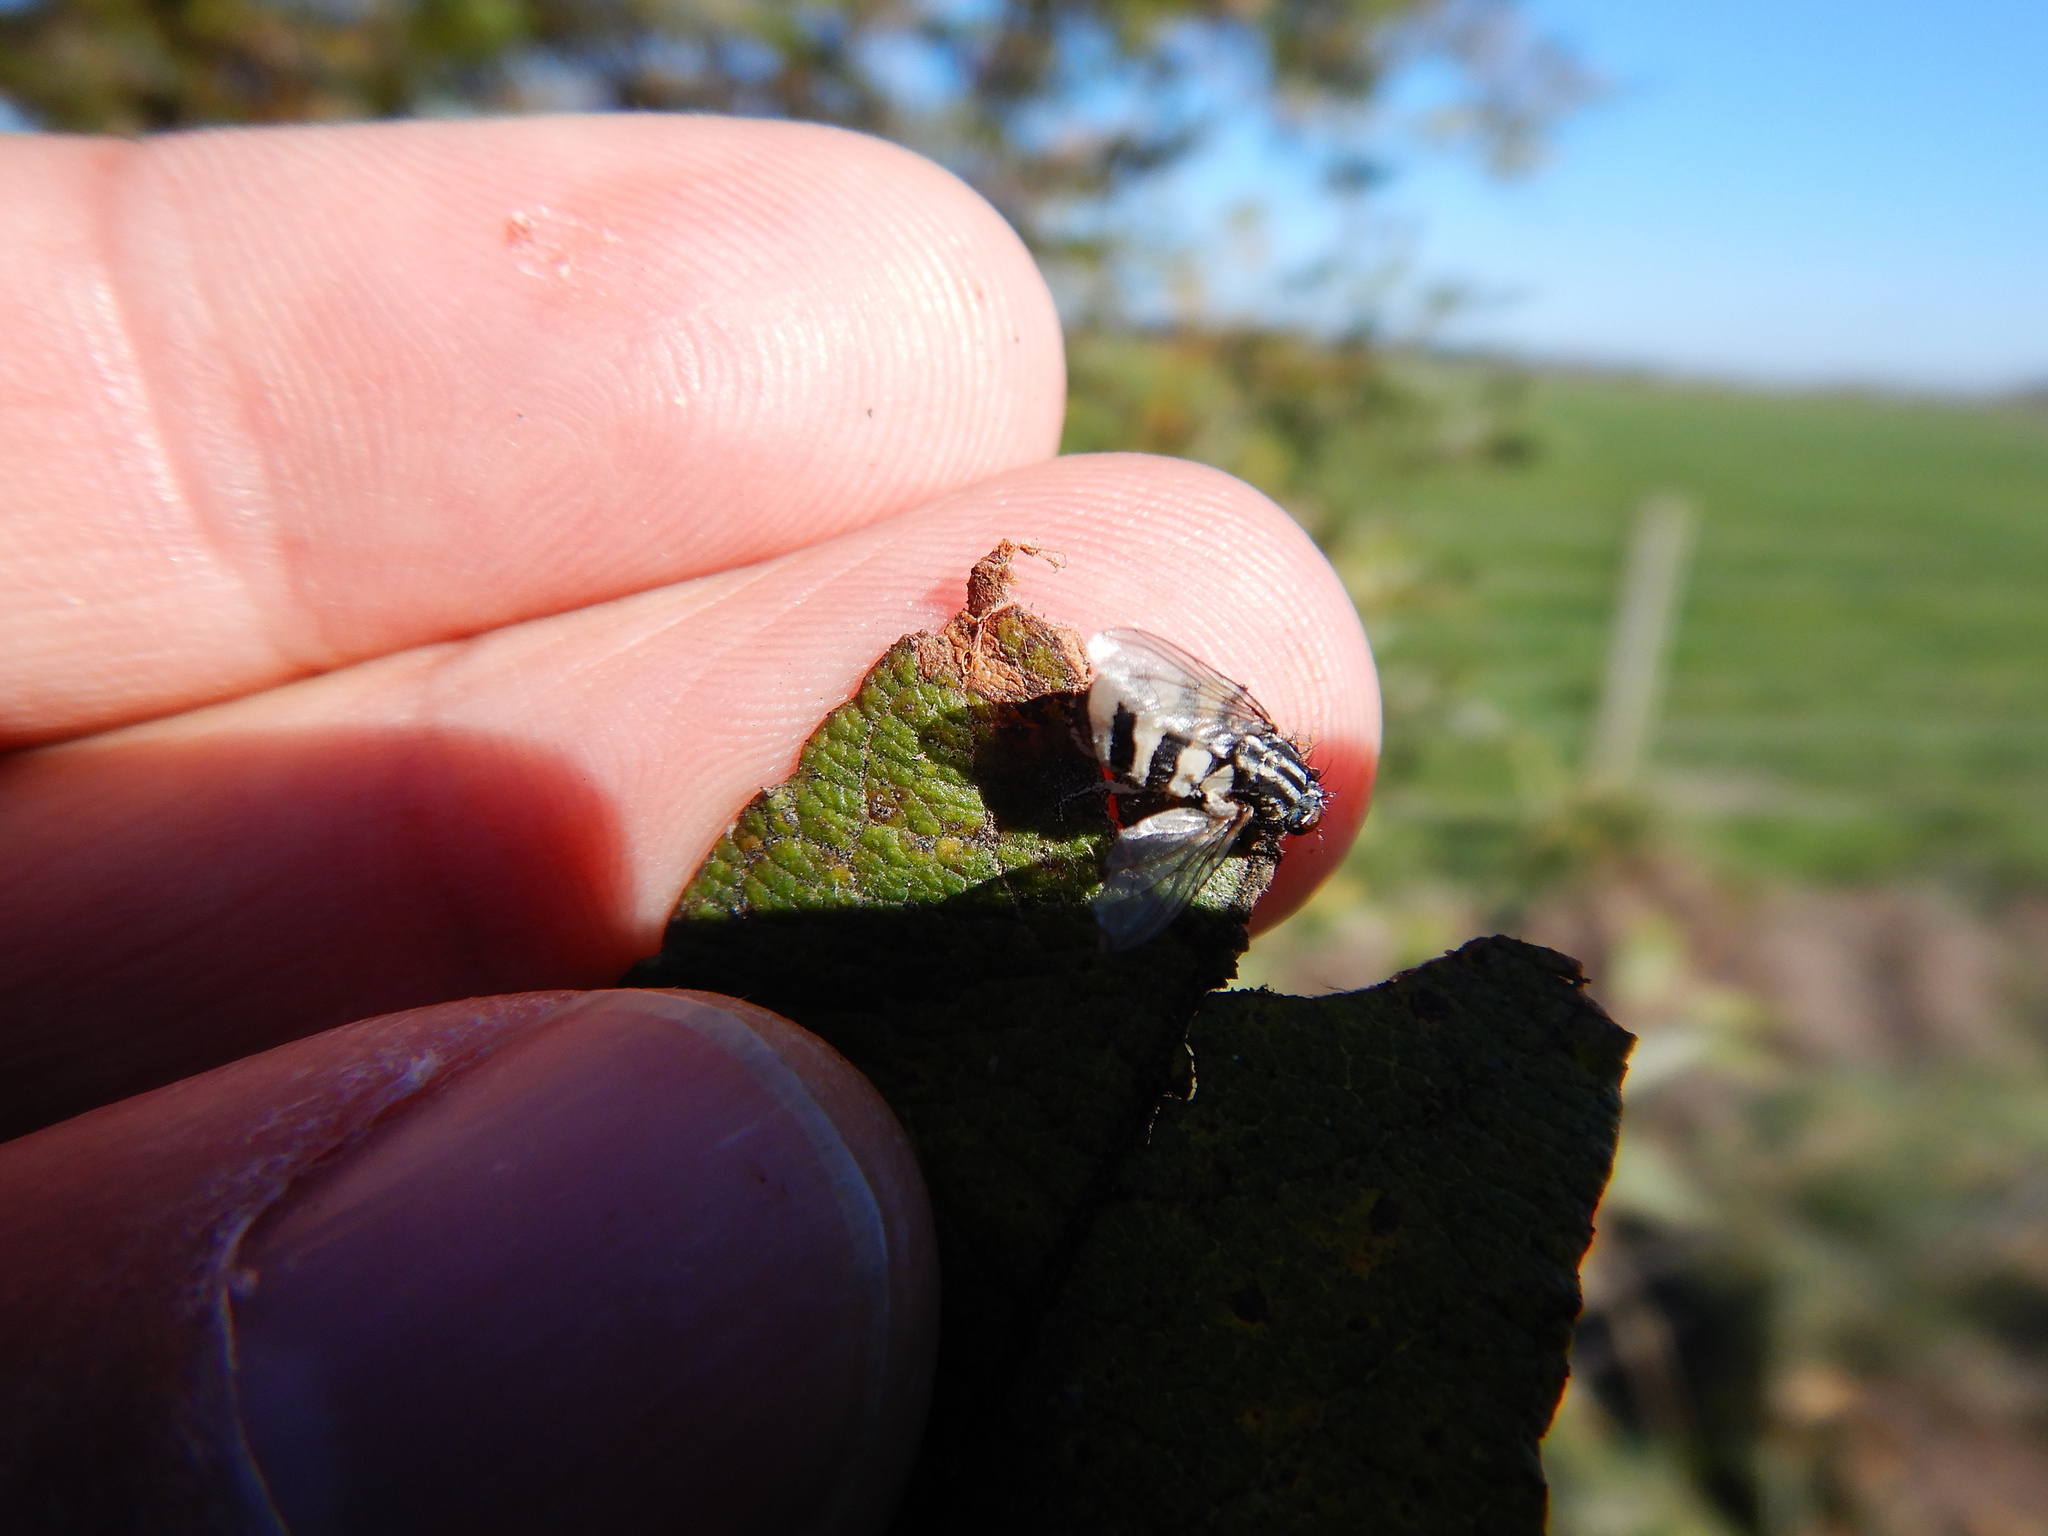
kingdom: Fungi
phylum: Entomophthoromycota
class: Entomophthoromycetes
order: Entomophthorales
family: Entomophthoraceae
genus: Entomophthora
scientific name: Entomophthora
